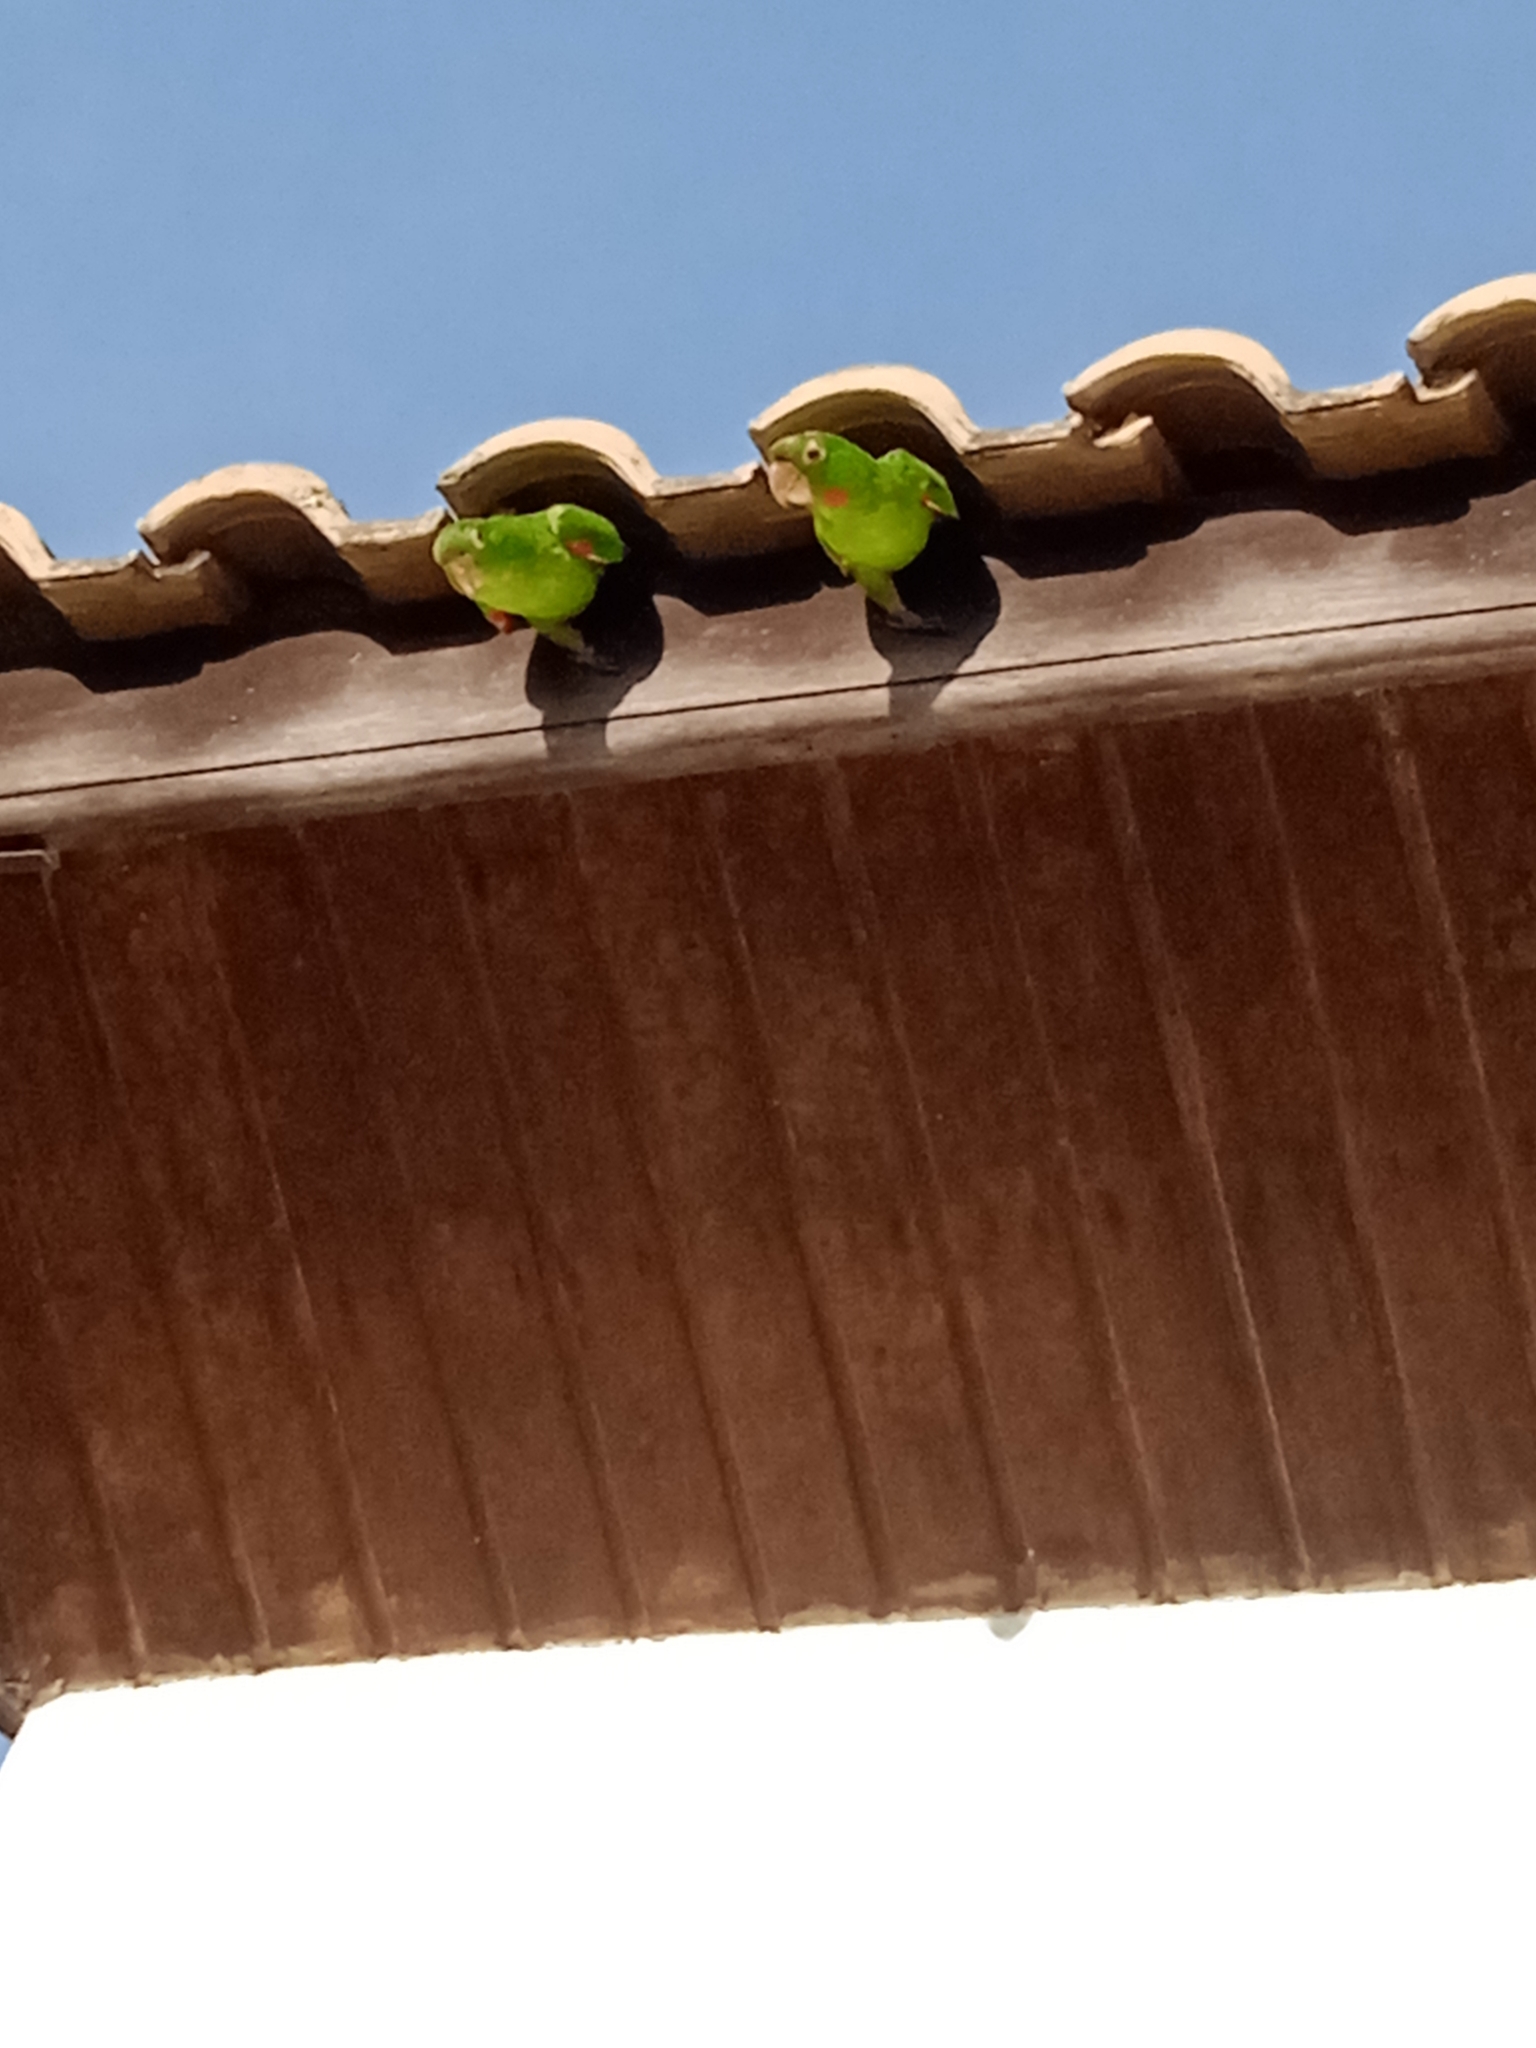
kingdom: Animalia
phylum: Chordata
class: Aves
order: Psittaciformes
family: Psittacidae
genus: Aratinga
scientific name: Aratinga leucophthalma
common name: White-eyed parakeet
